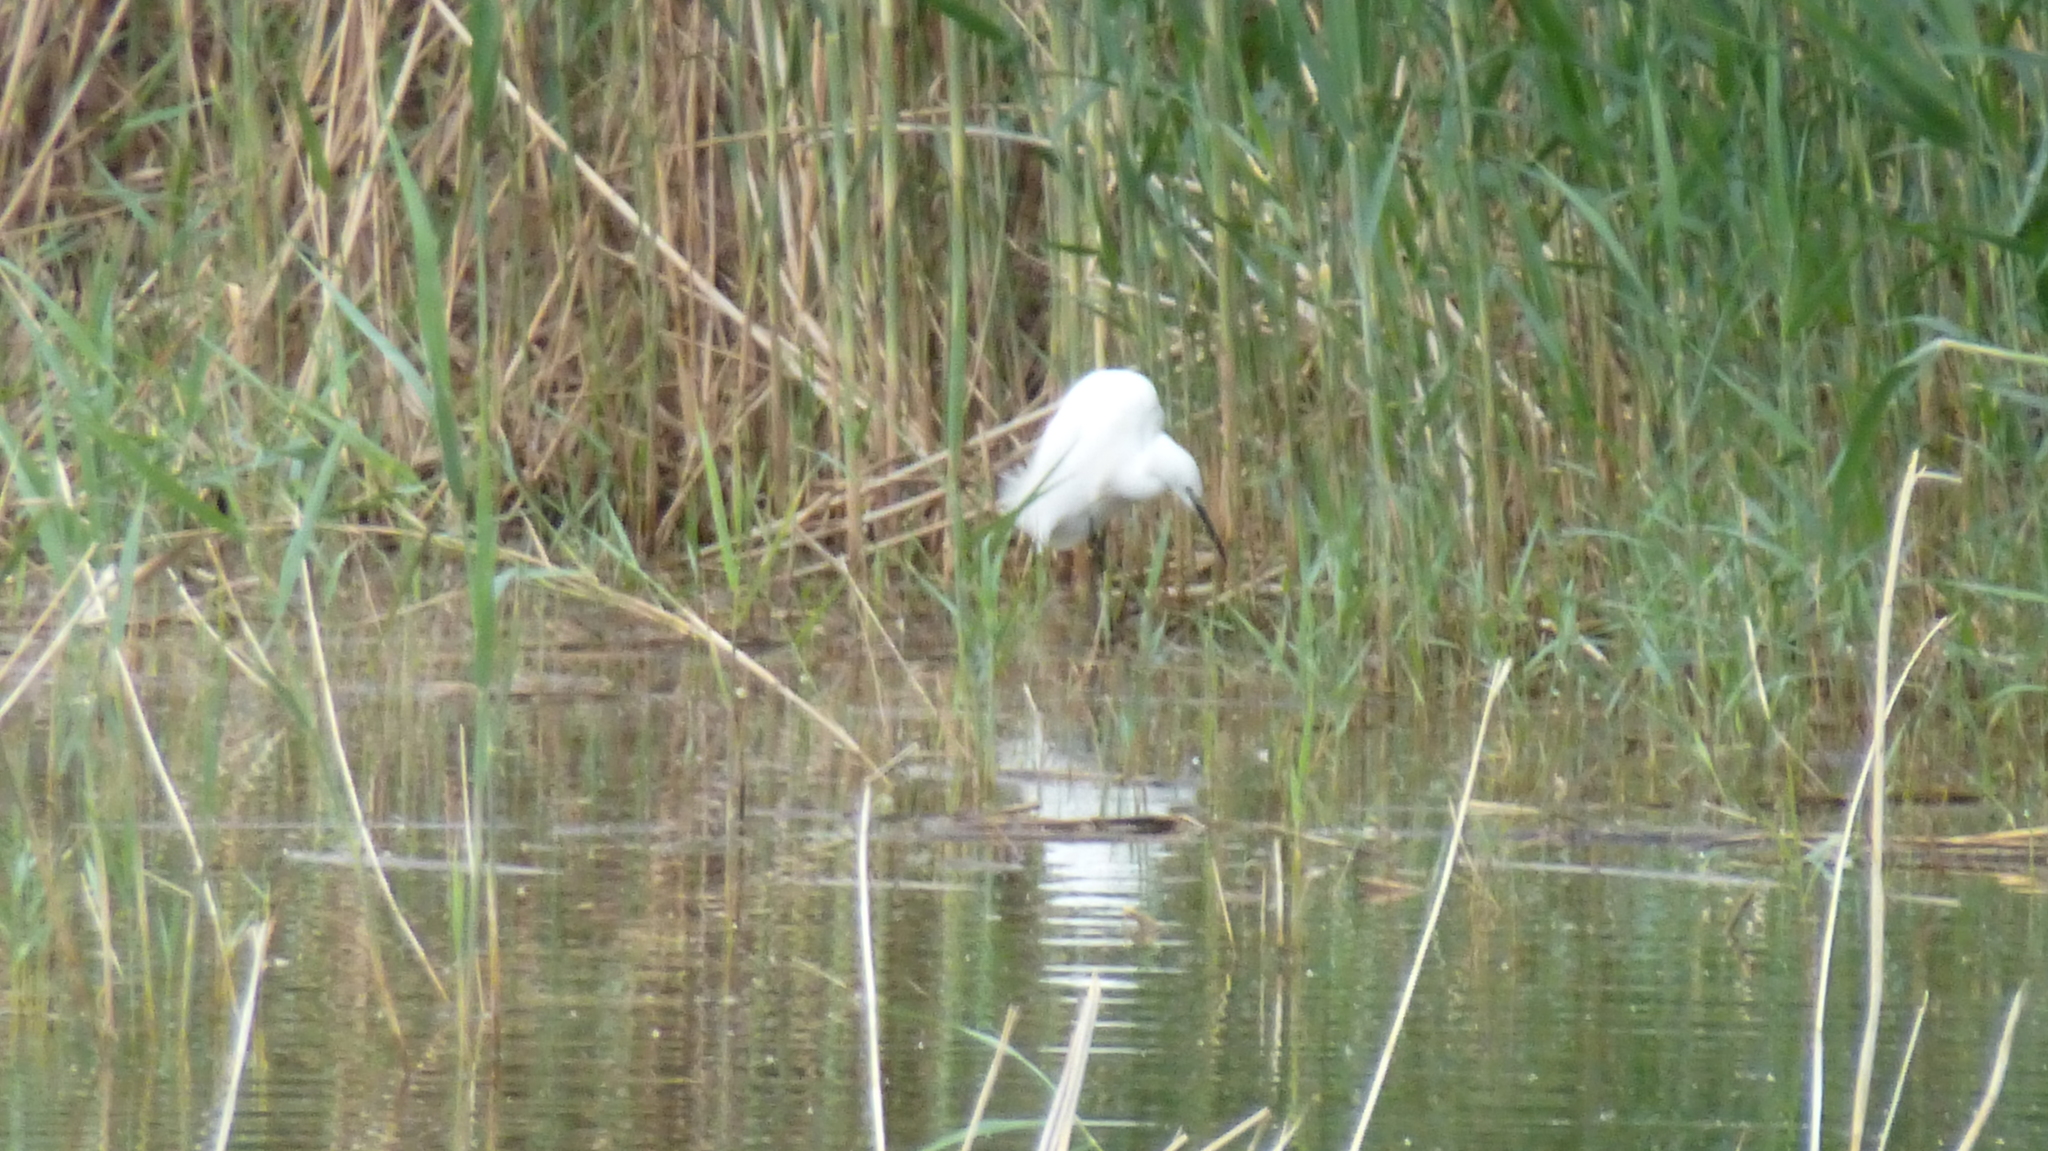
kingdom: Animalia
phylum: Chordata
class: Aves
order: Pelecaniformes
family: Ardeidae
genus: Egretta
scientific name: Egretta garzetta
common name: Little egret
